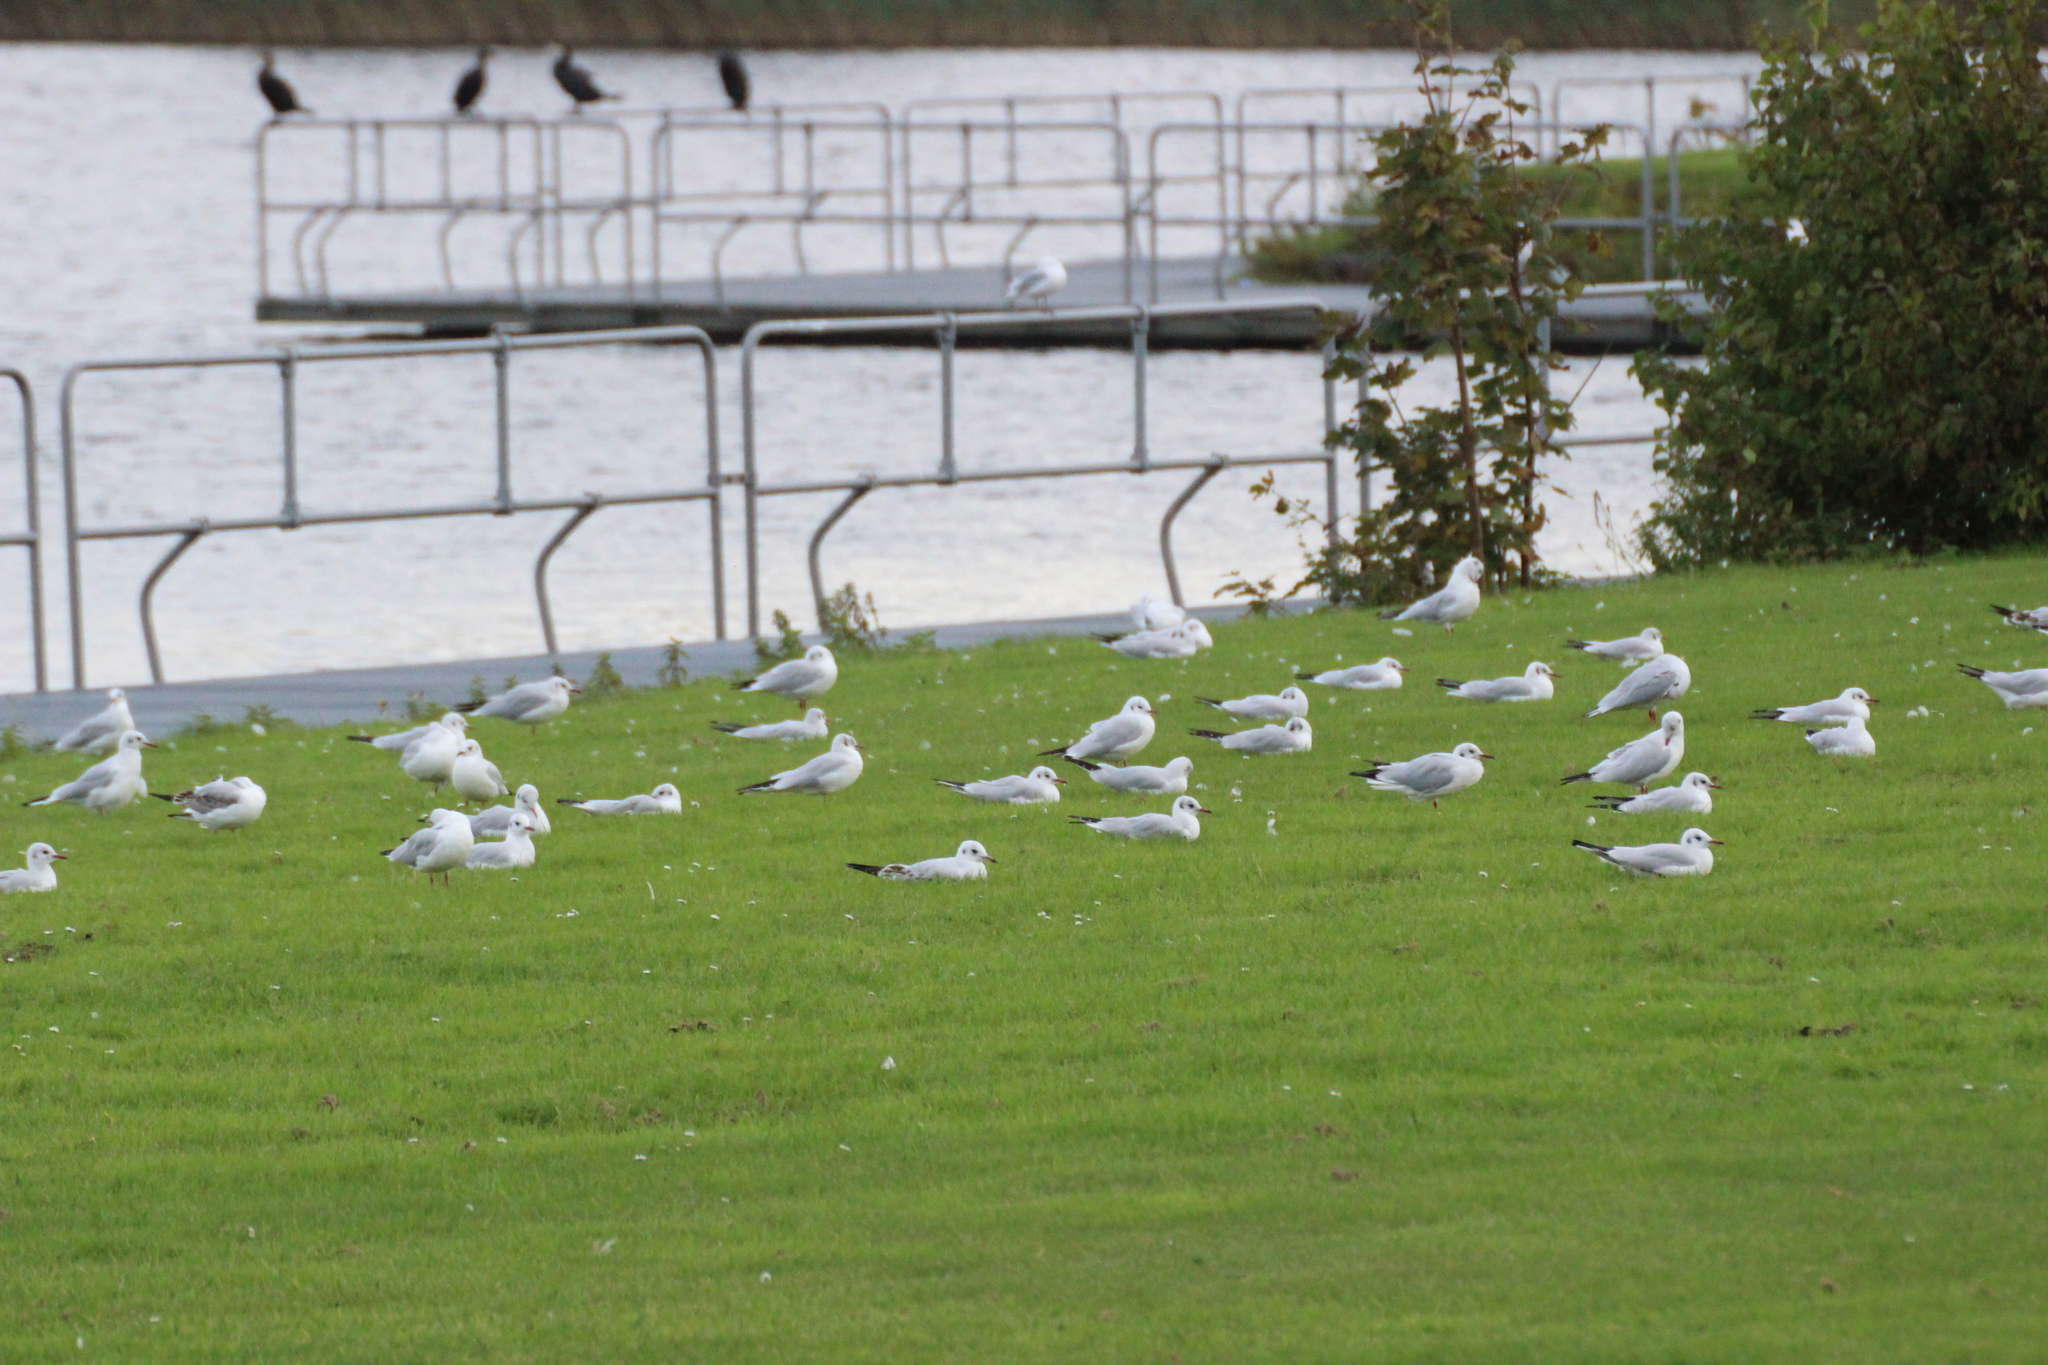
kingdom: Animalia
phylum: Chordata
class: Aves
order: Charadriiformes
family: Laridae
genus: Chroicocephalus
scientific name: Chroicocephalus ridibundus
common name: Black-headed gull
